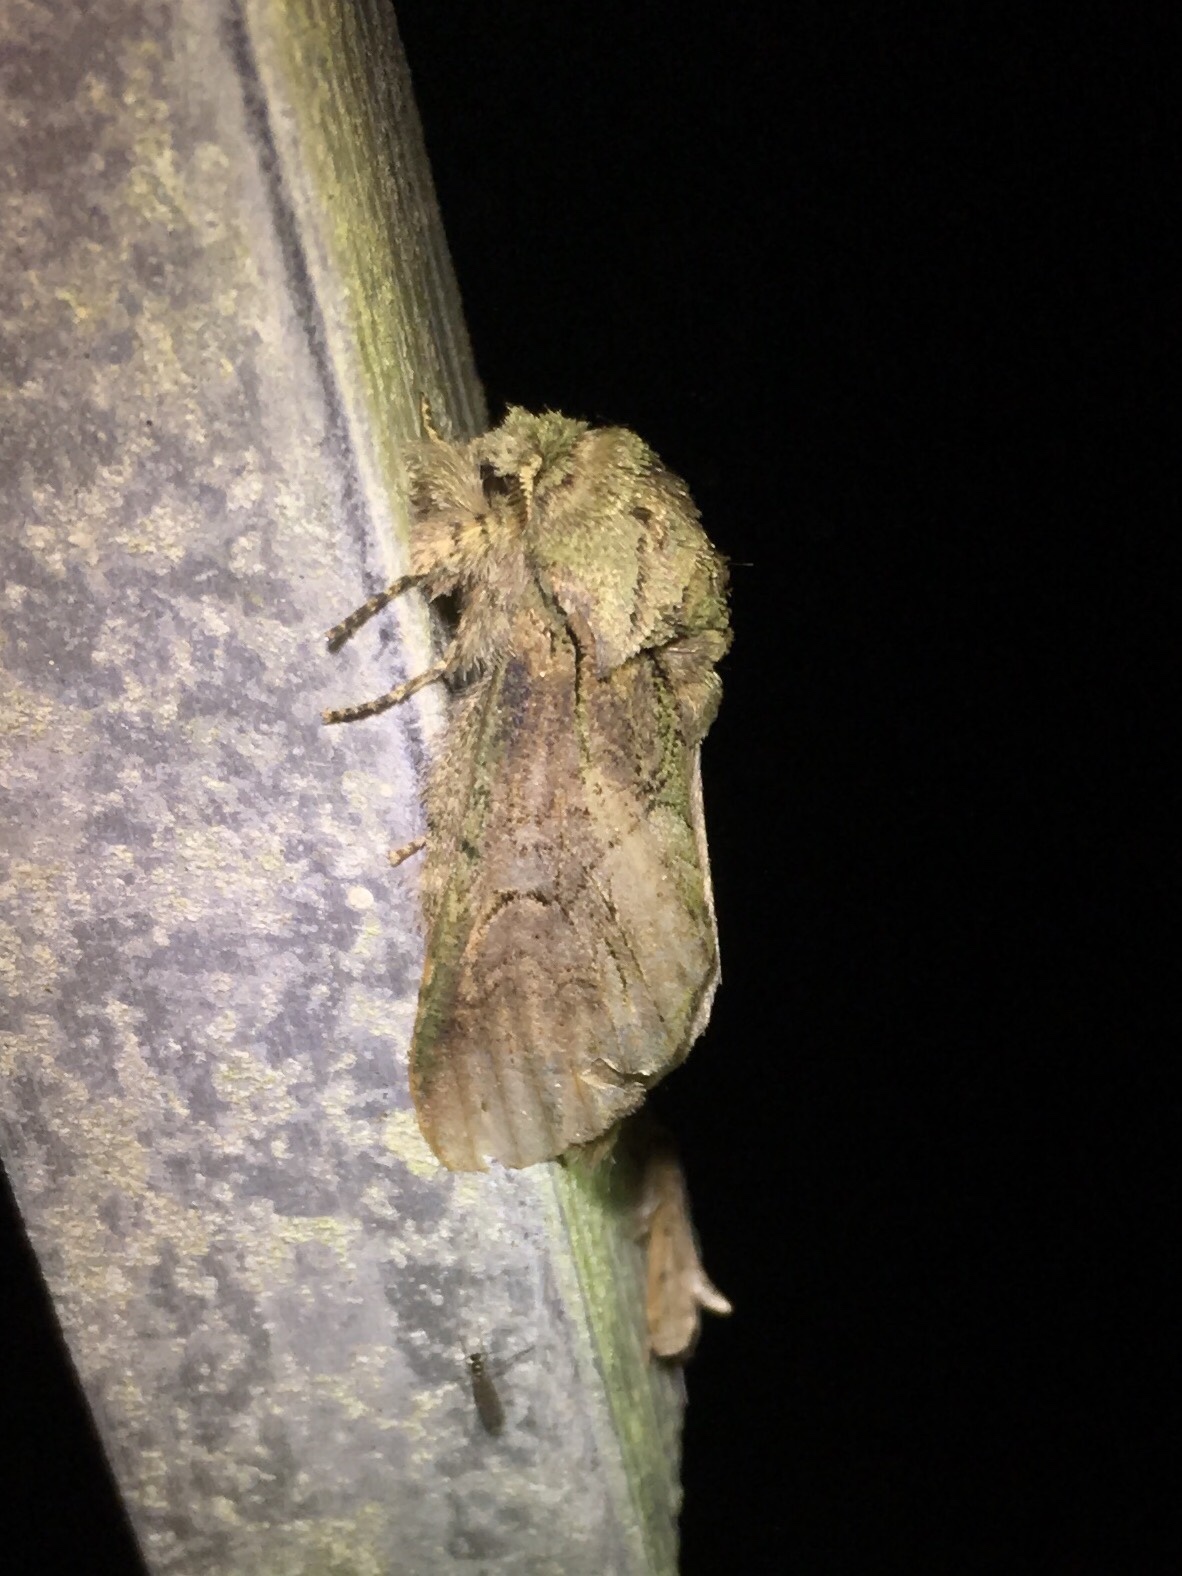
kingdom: Animalia
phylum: Arthropoda
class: Insecta
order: Lepidoptera
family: Notodontidae
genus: Disphragis
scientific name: Disphragis
